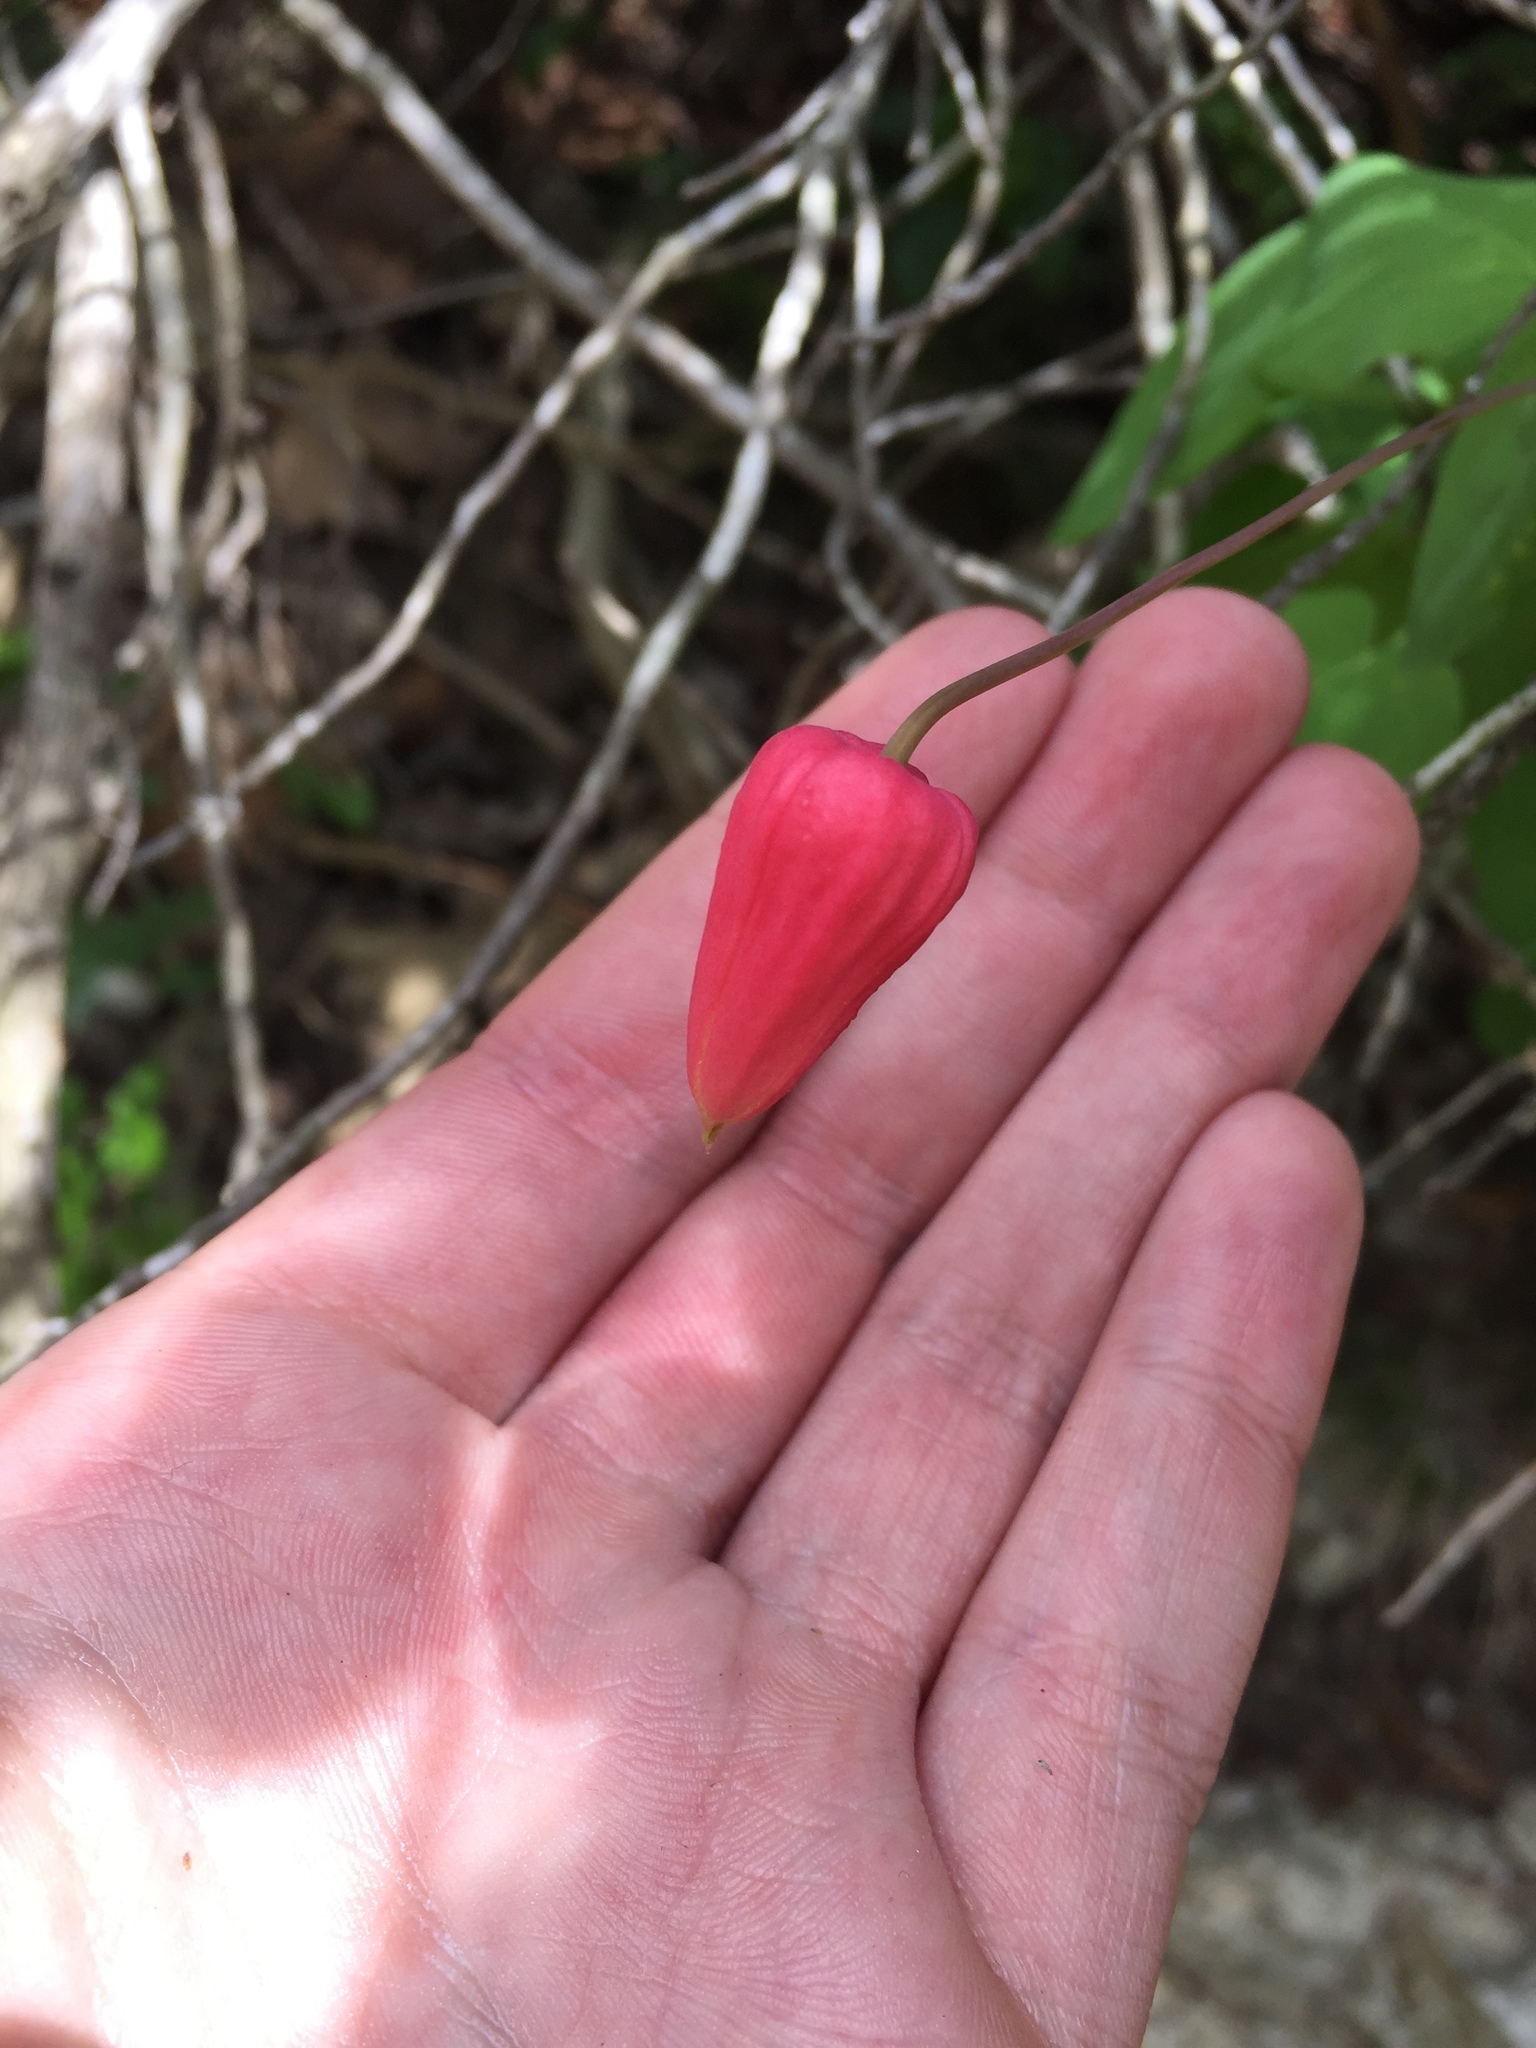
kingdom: Plantae
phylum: Tracheophyta
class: Magnoliopsida
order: Ranunculales
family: Ranunculaceae
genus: Clematis
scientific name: Clematis texensis
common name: Crimson clematis
